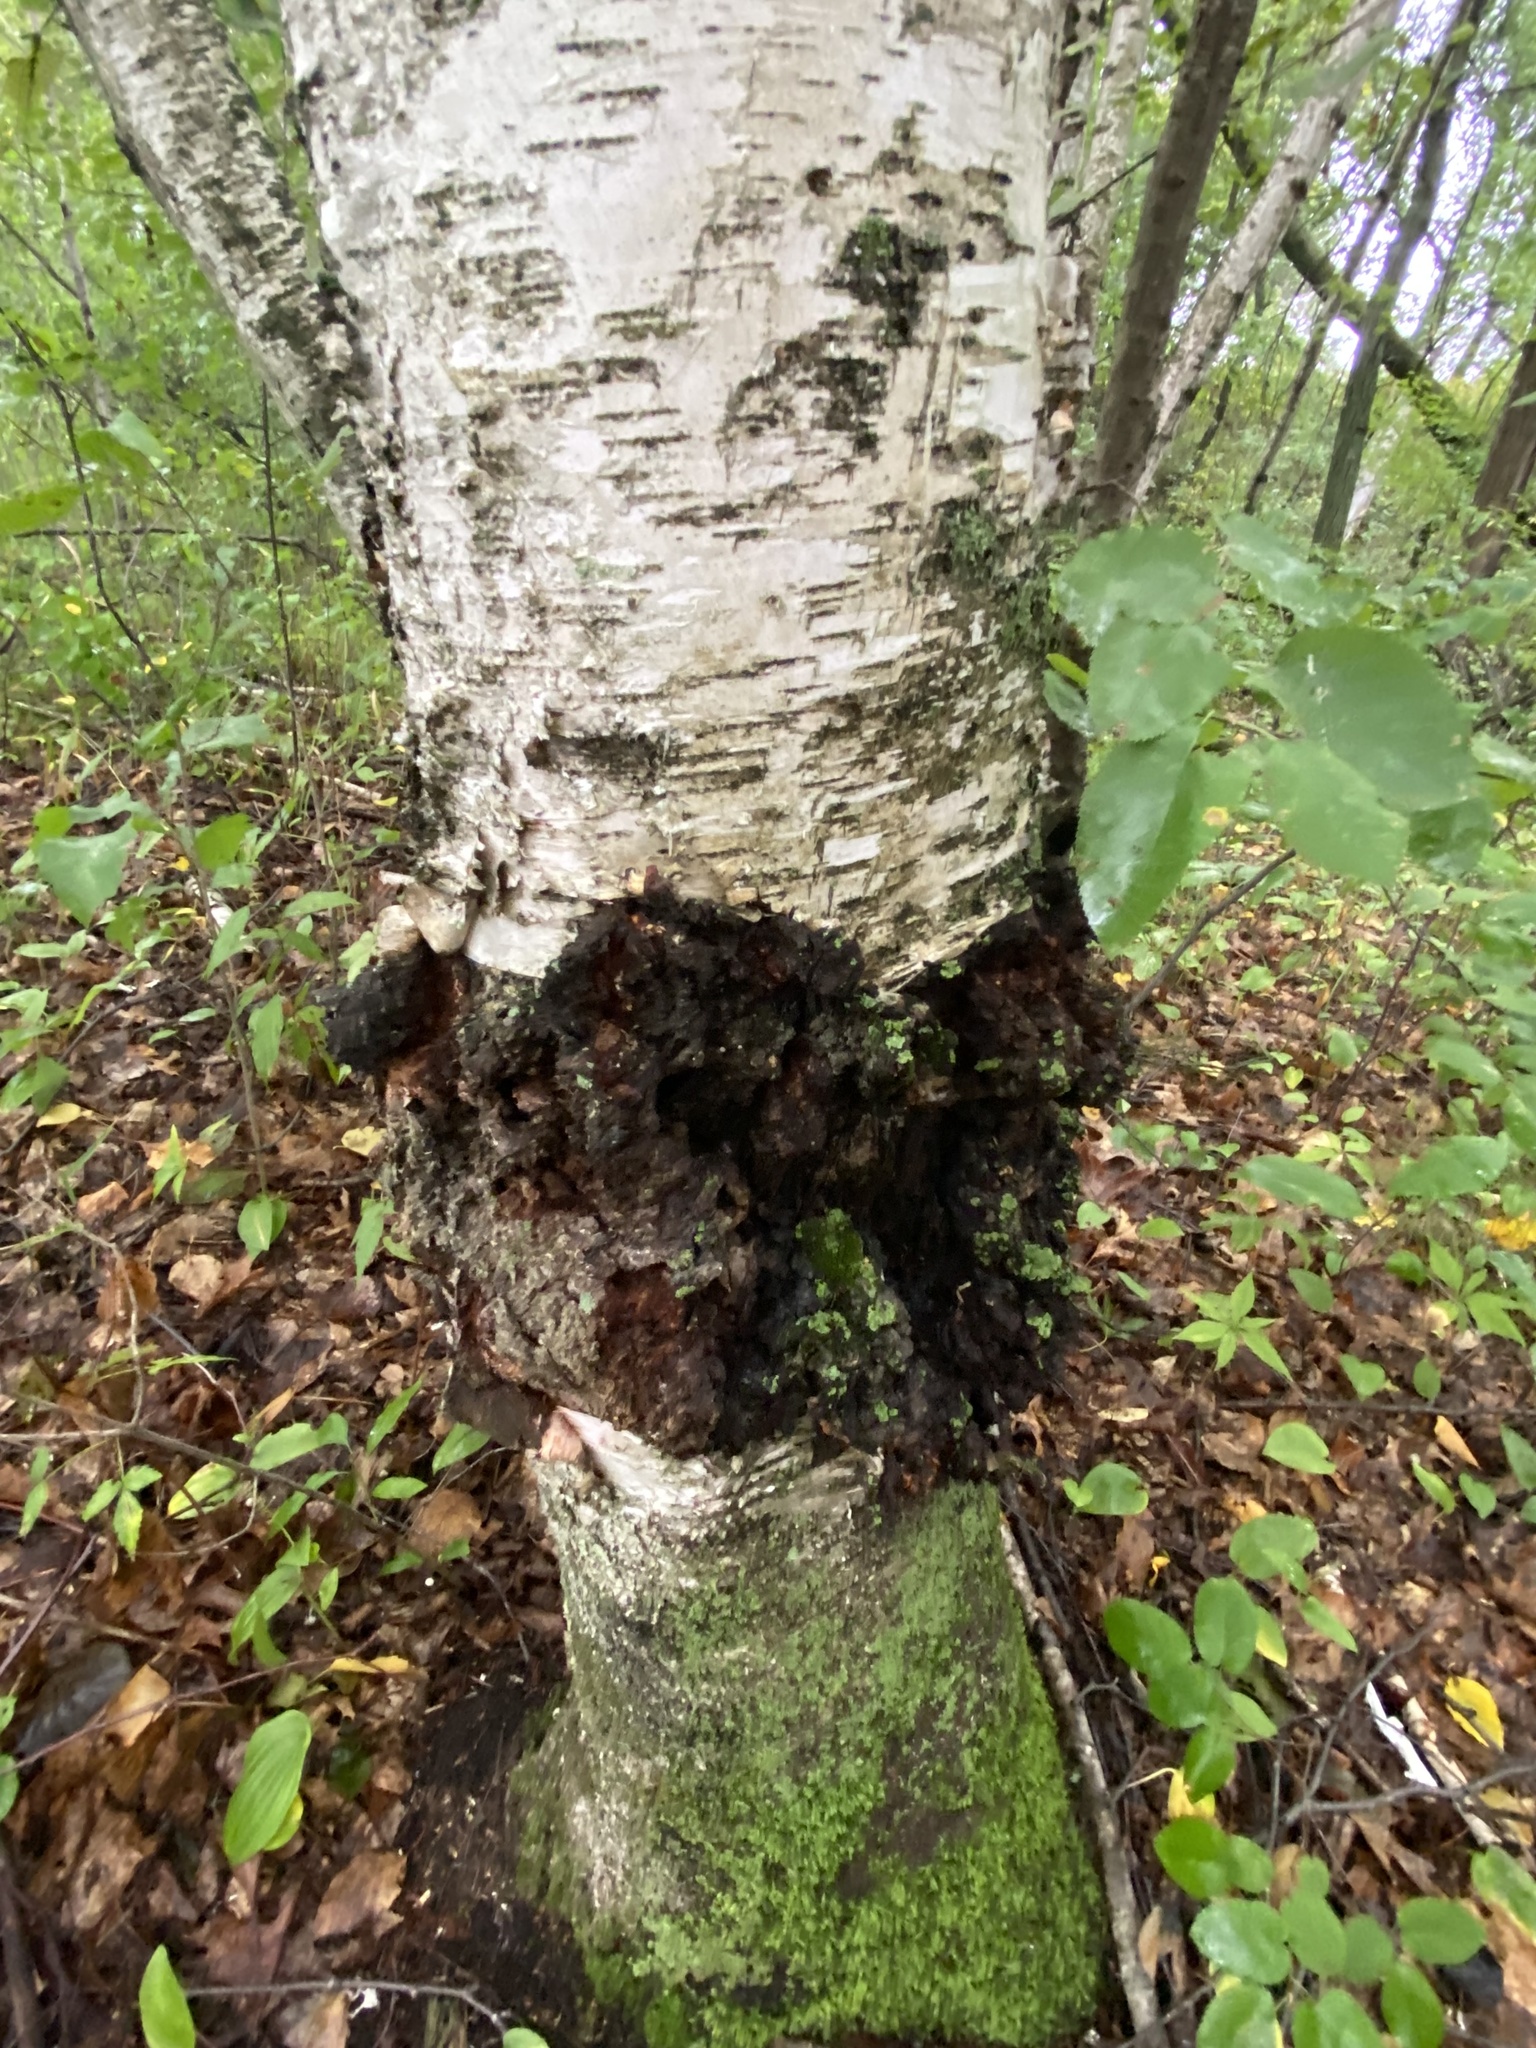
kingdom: Fungi
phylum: Basidiomycota
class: Agaricomycetes
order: Hymenochaetales
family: Hymenochaetaceae
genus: Inonotus
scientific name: Inonotus obliquus
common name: Chaga
